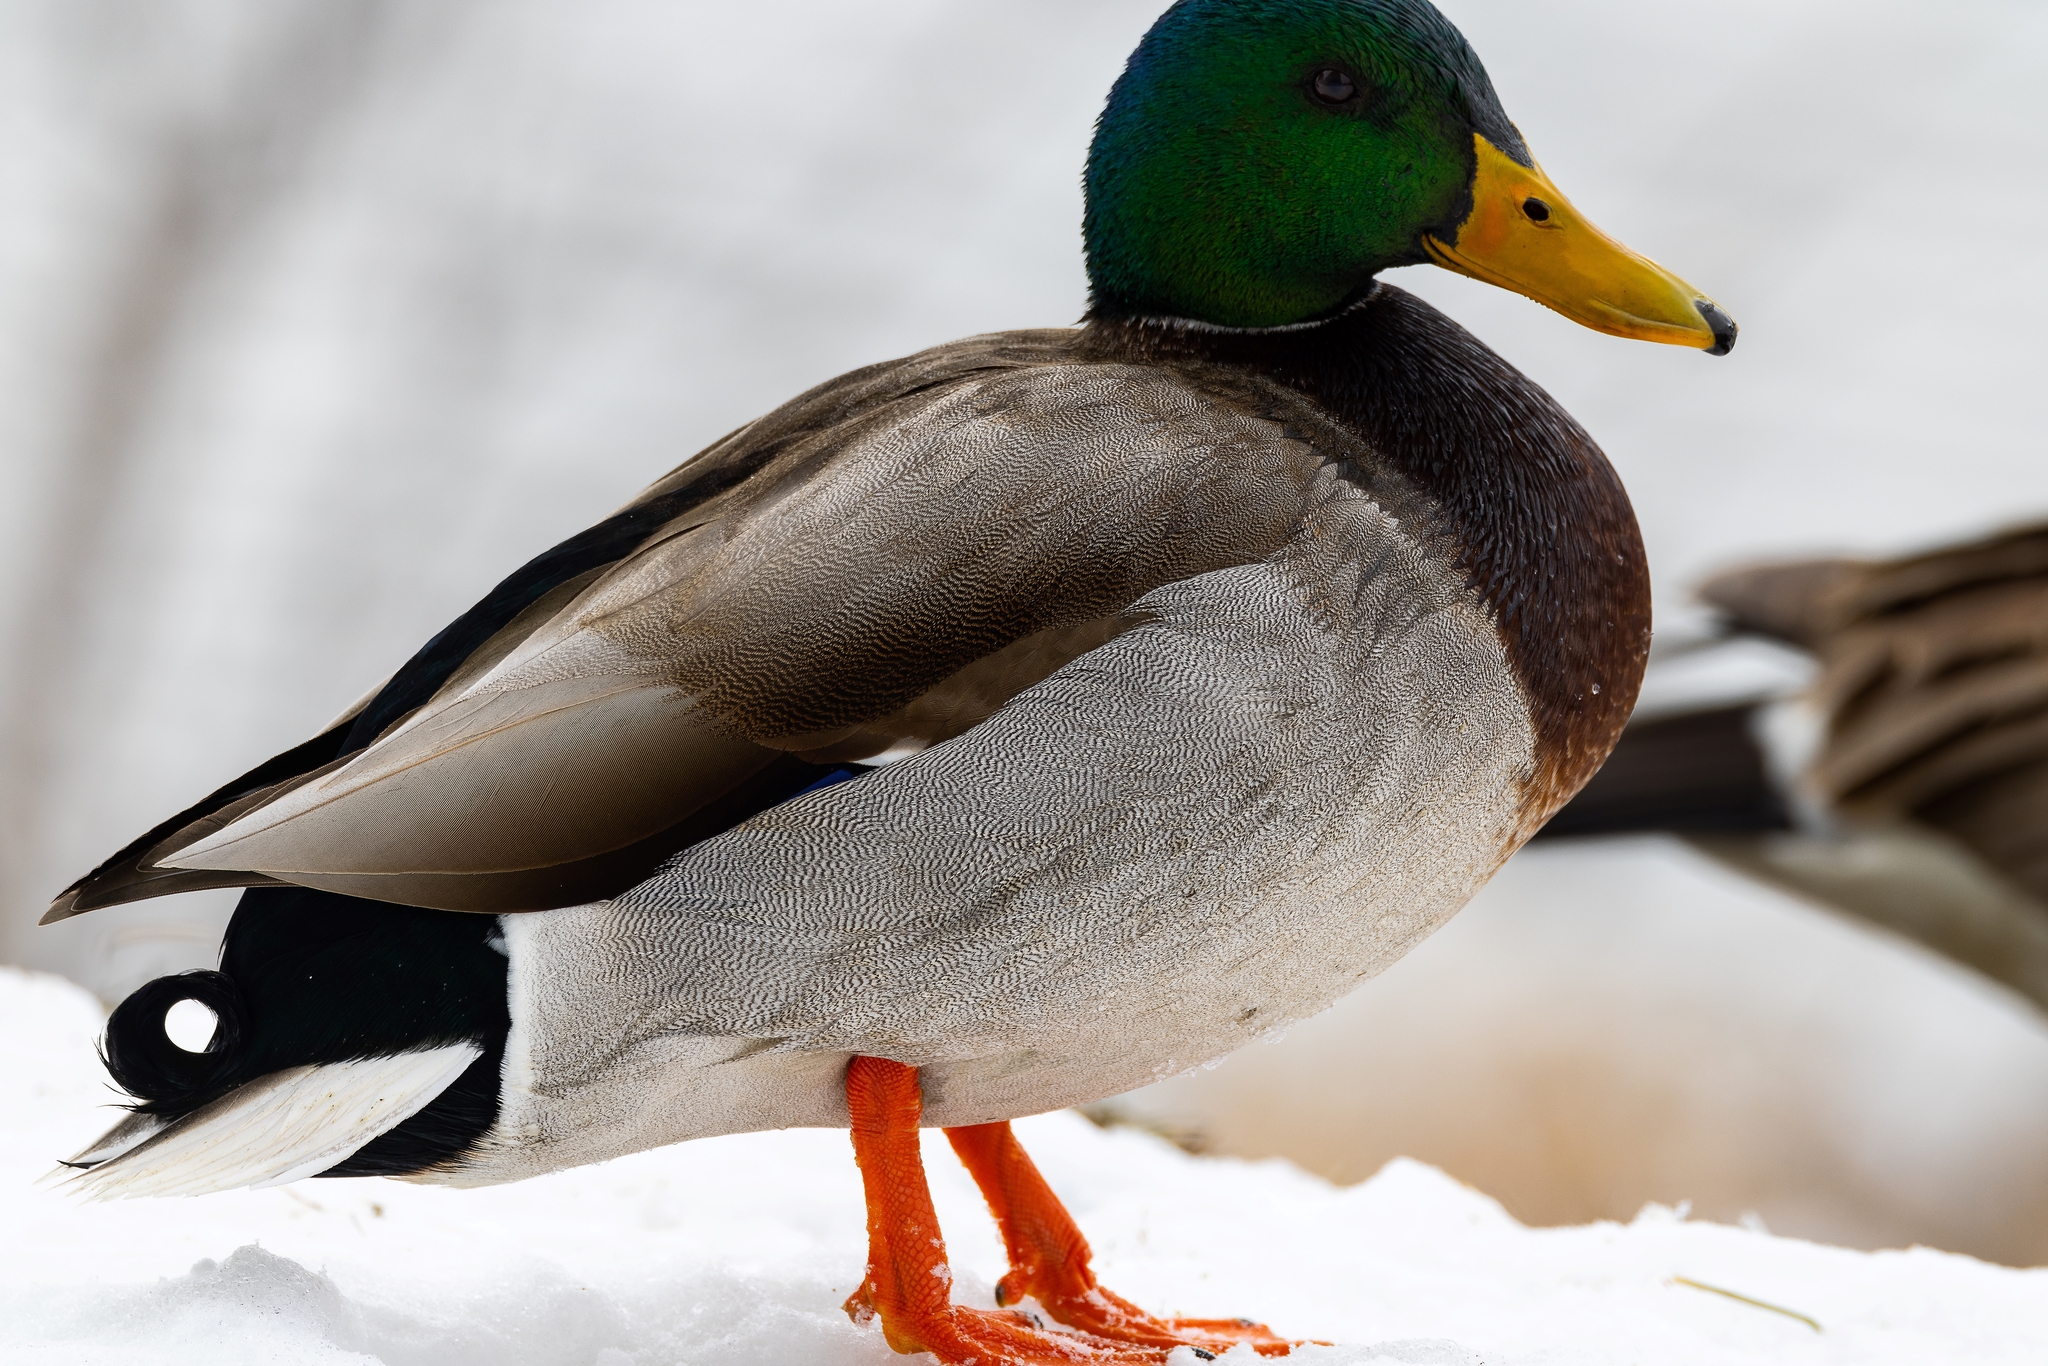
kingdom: Animalia
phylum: Chordata
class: Aves
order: Anseriformes
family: Anatidae
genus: Anas
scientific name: Anas platyrhynchos
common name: Mallard
